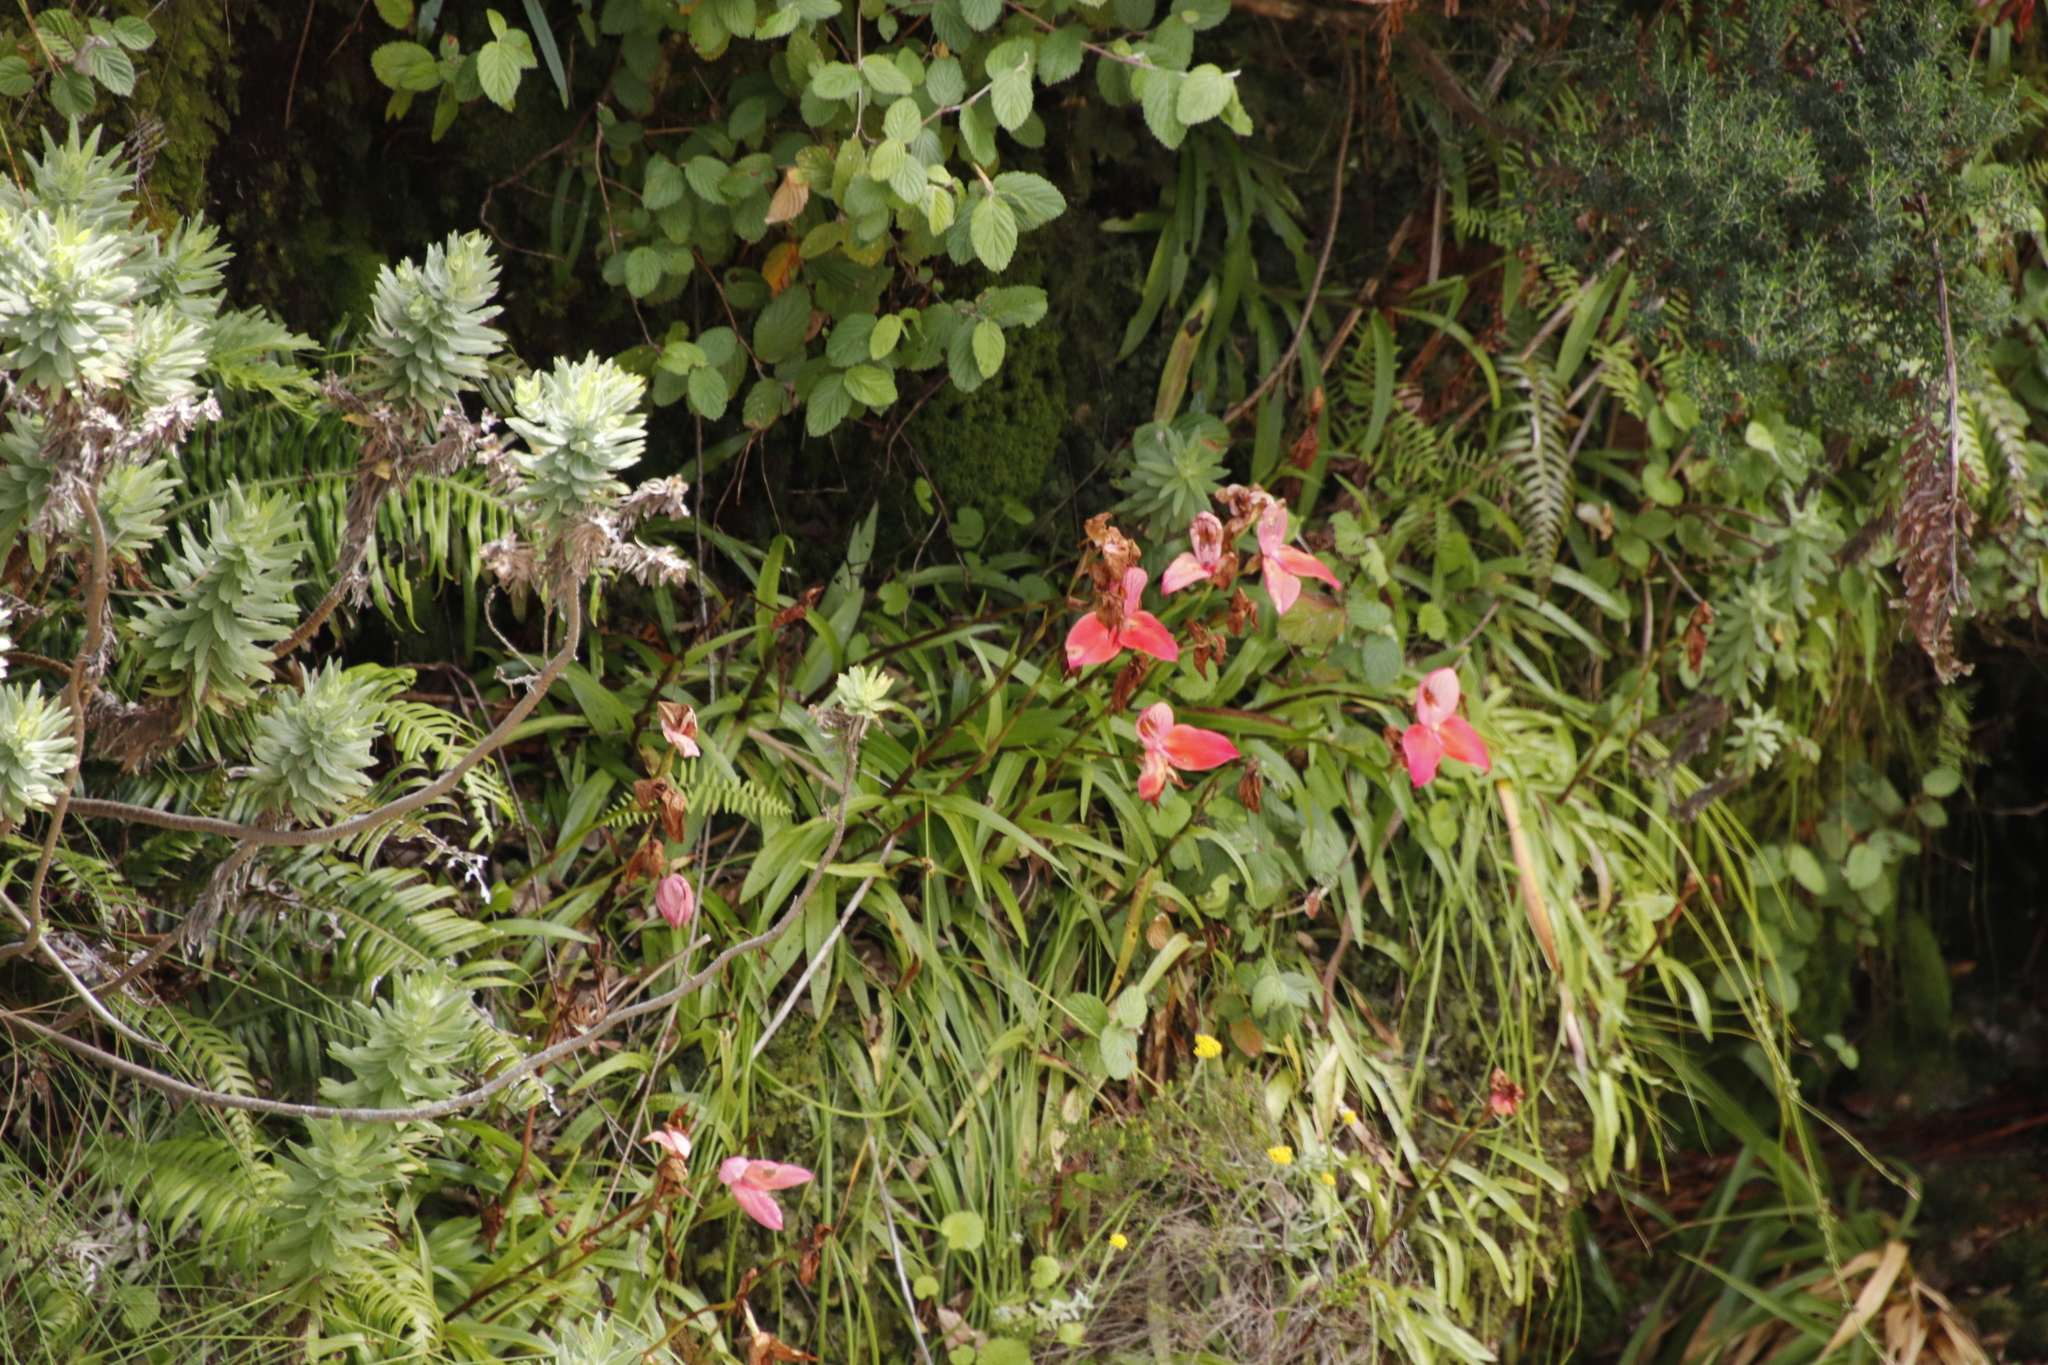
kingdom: Plantae
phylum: Tracheophyta
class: Liliopsida
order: Asparagales
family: Orchidaceae
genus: Disa
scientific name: Disa uniflora
